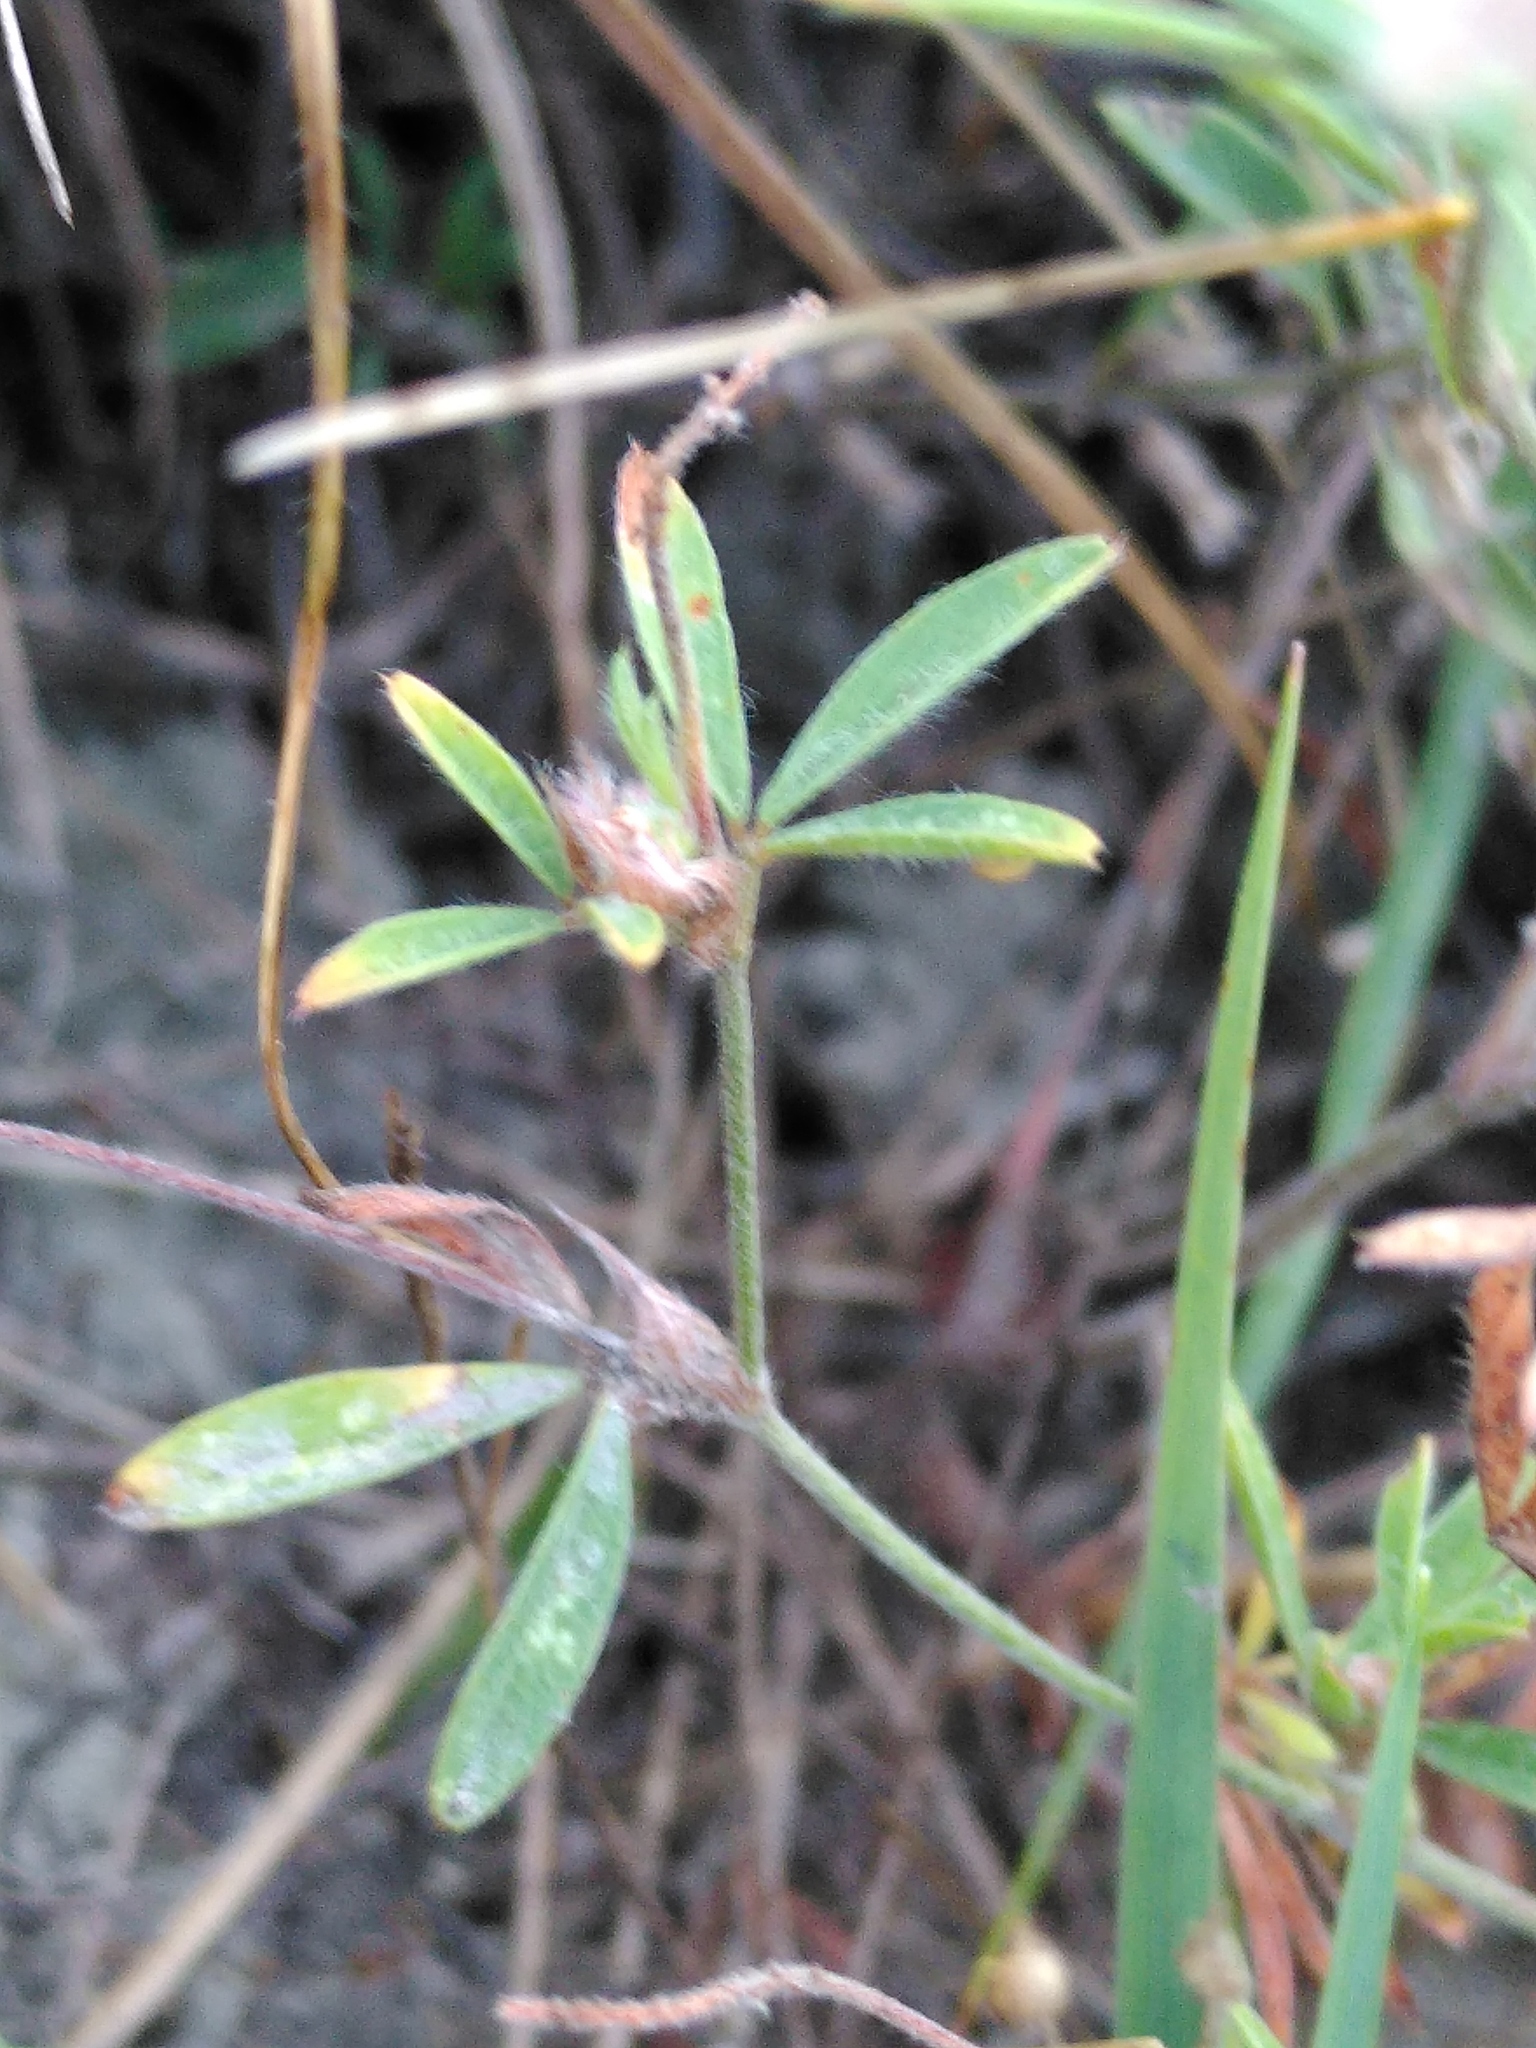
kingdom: Plantae
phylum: Tracheophyta
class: Magnoliopsida
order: Fabales
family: Fabaceae
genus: Trifolium
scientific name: Trifolium arvense
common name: Hare's-foot clover
